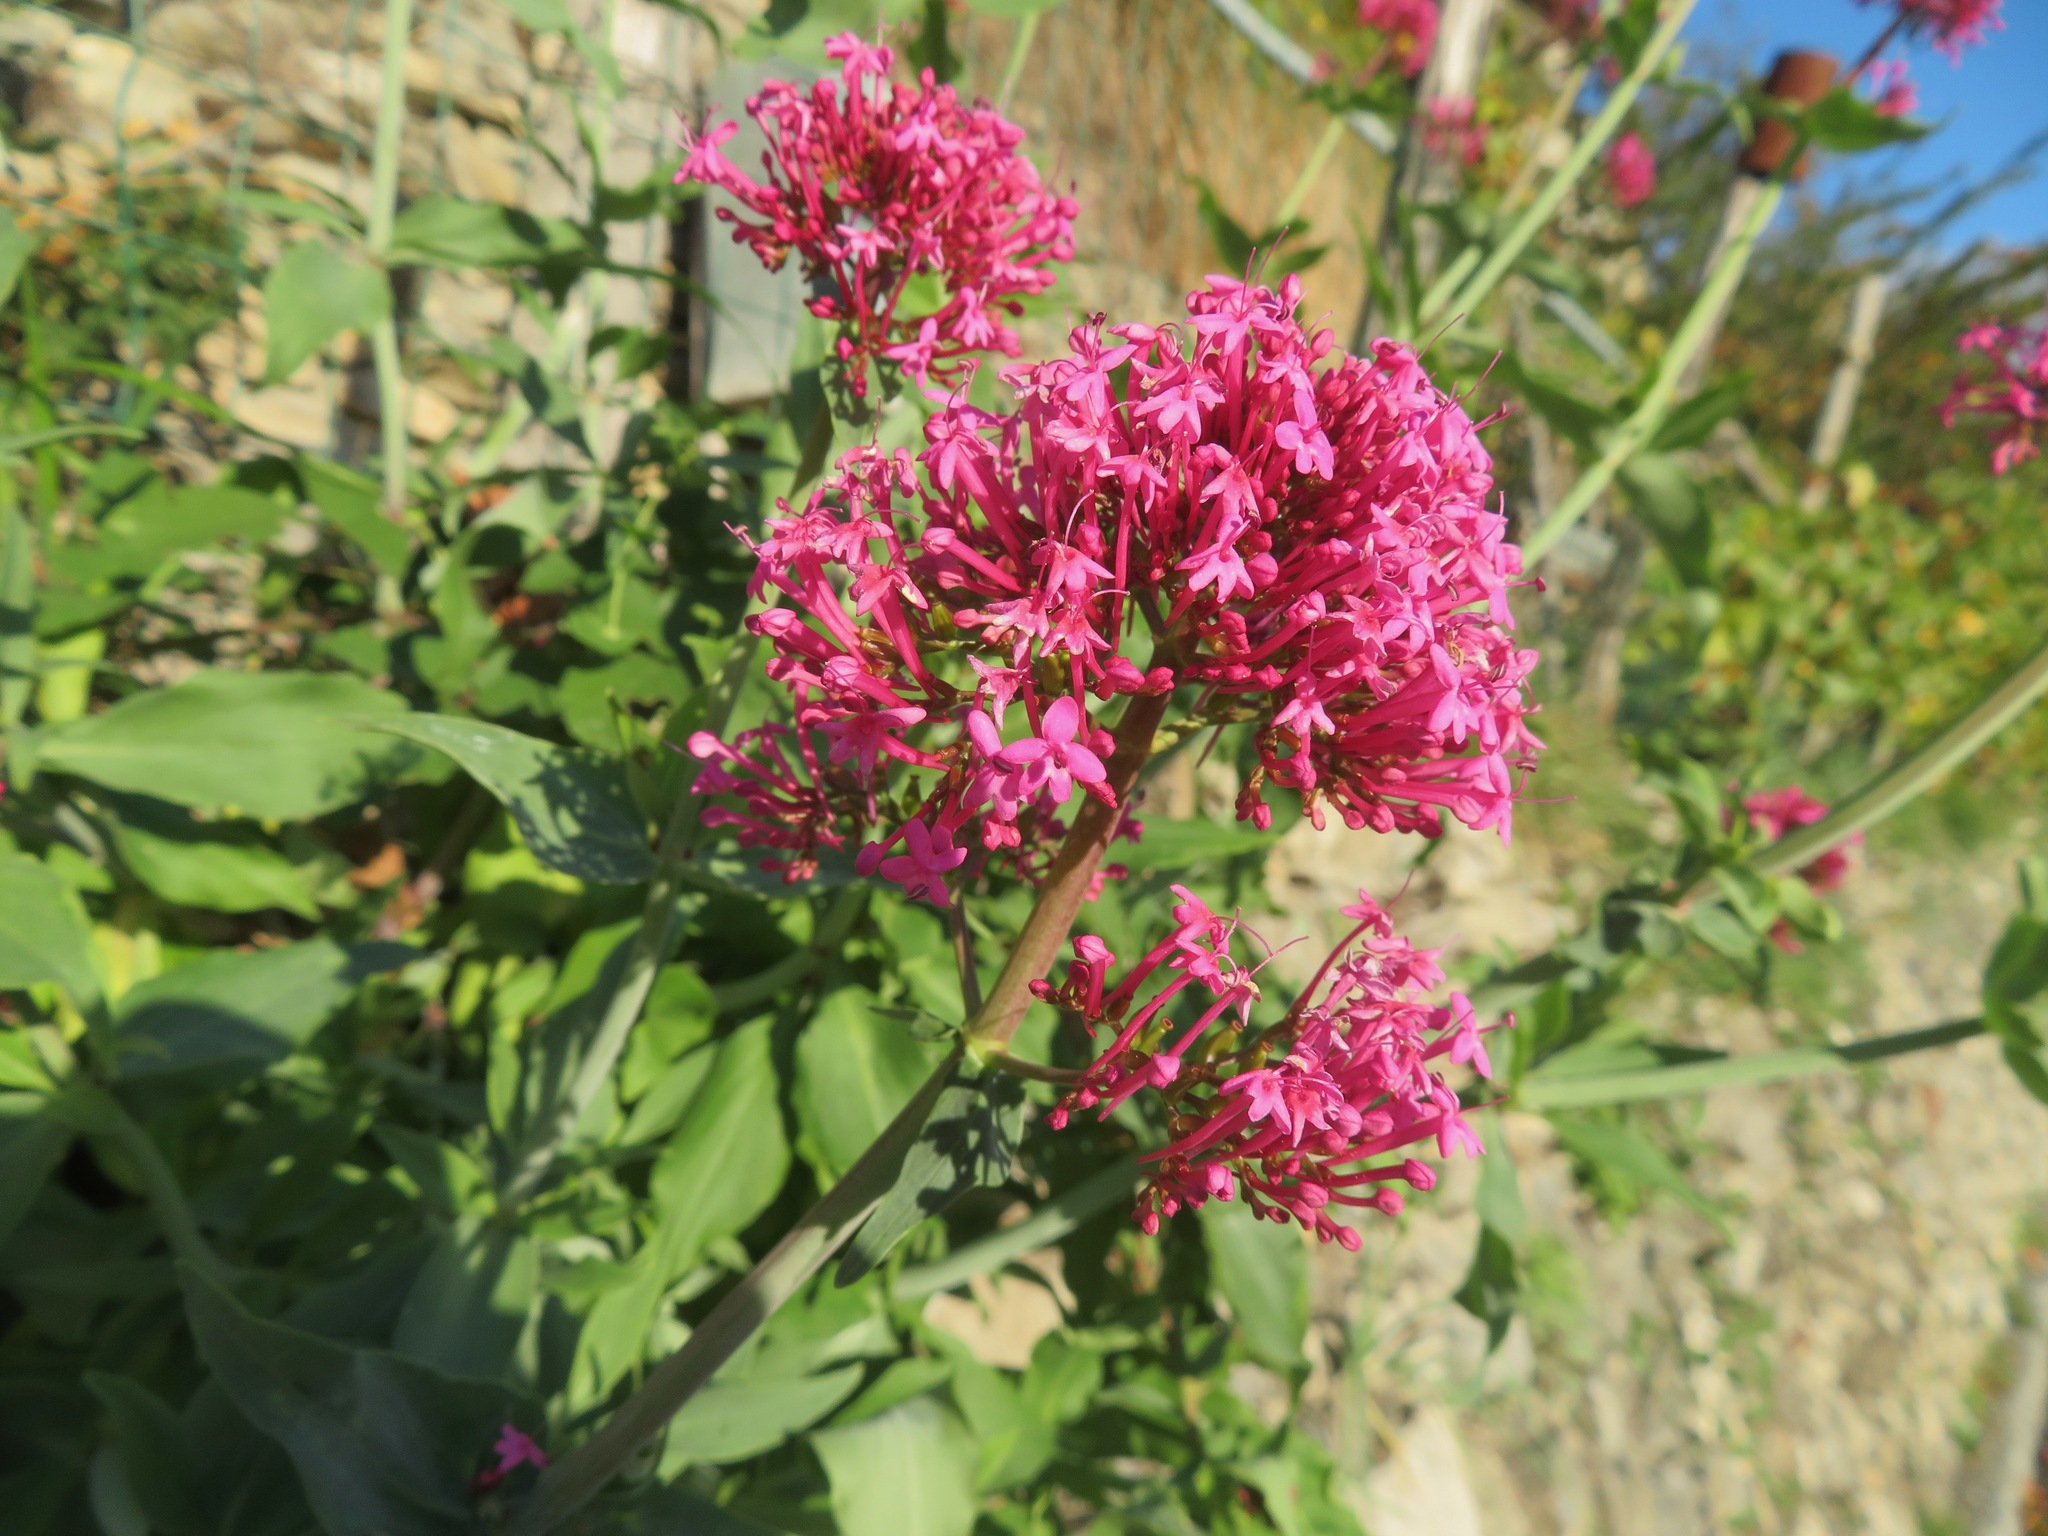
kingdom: Plantae
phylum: Tracheophyta
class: Magnoliopsida
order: Dipsacales
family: Caprifoliaceae
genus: Centranthus
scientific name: Centranthus ruber
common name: Red valerian
